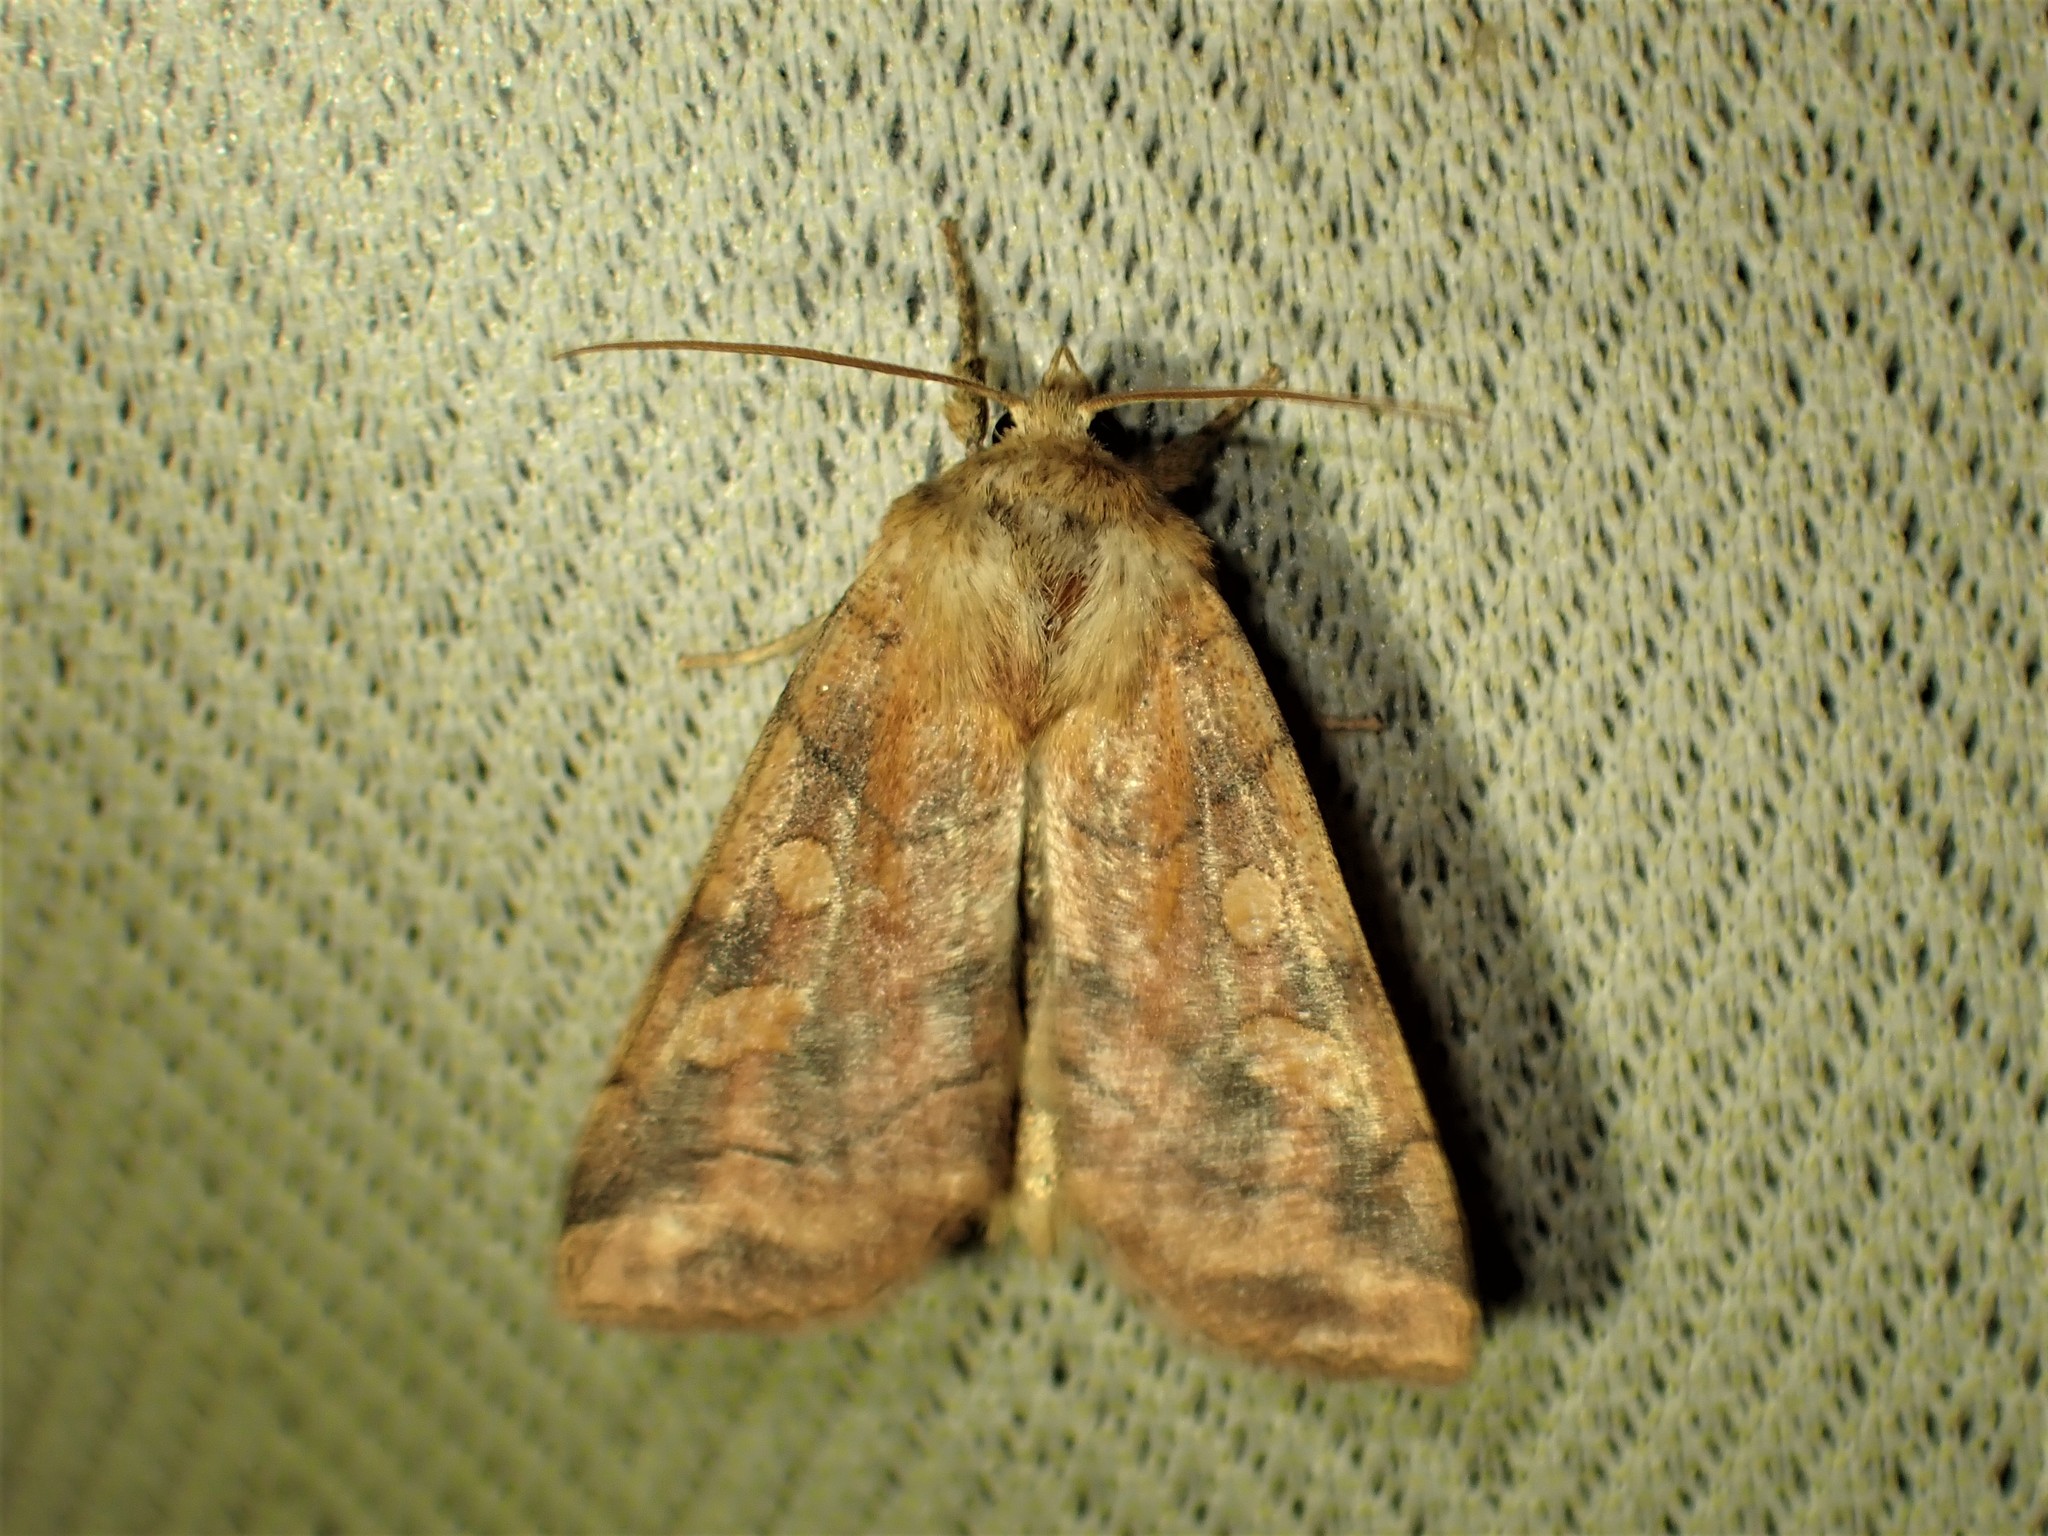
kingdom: Animalia
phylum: Arthropoda
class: Insecta
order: Lepidoptera
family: Noctuidae
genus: Enargia
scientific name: Enargia decolor
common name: Aspen twoleaf tier moth
